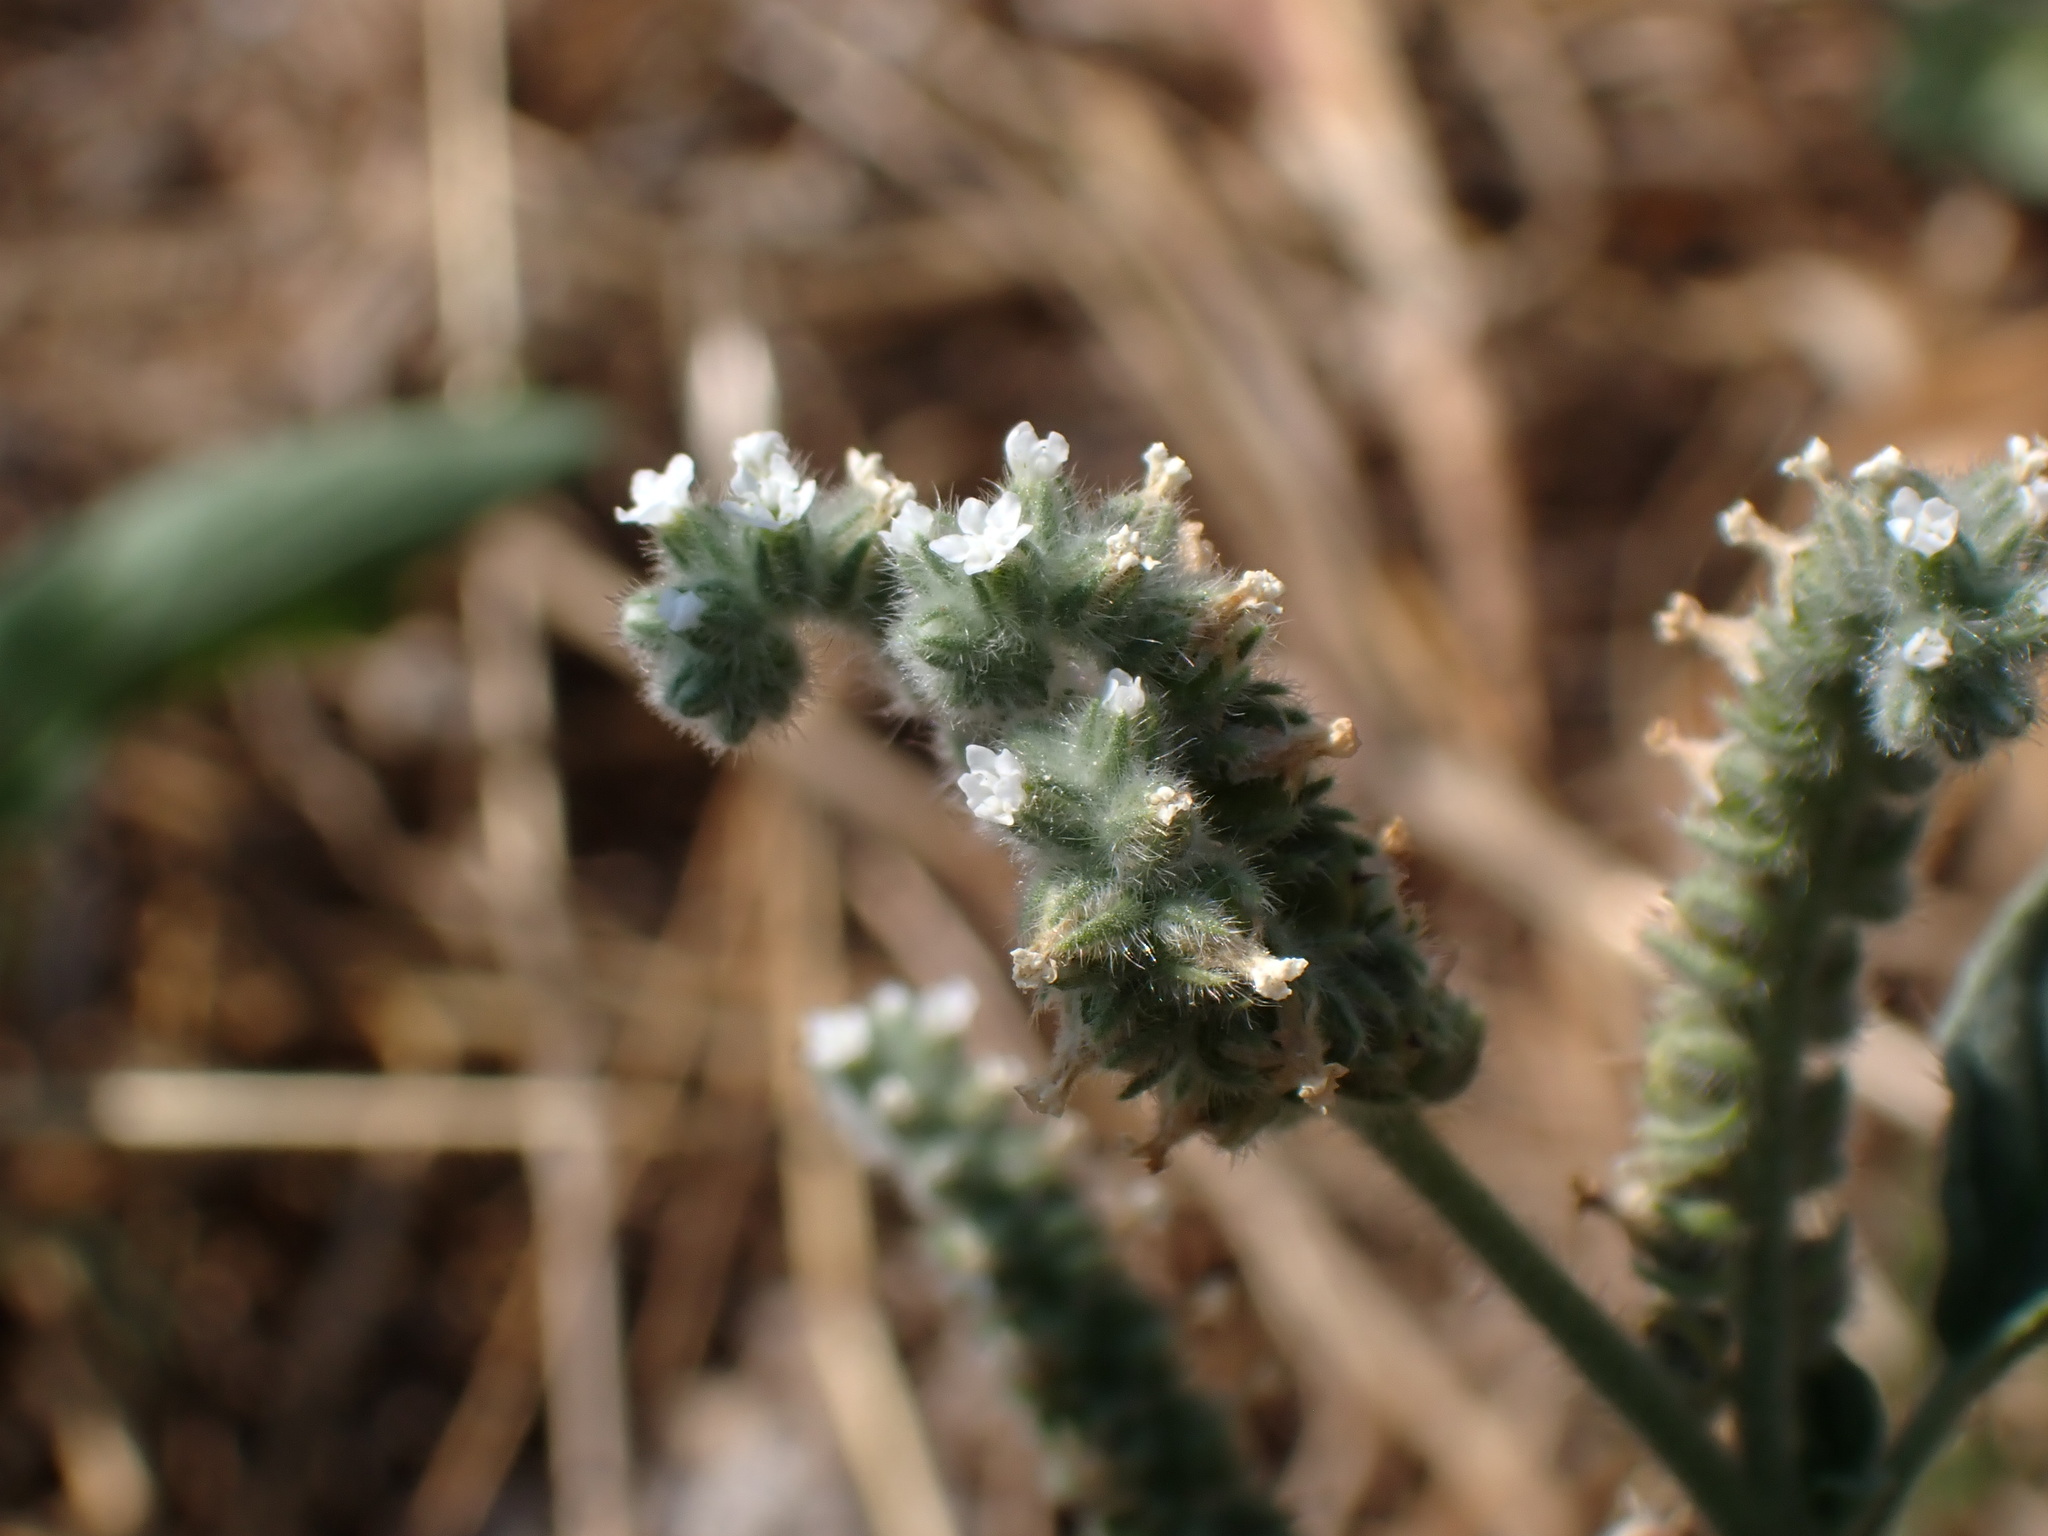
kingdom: Plantae
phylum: Tracheophyta
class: Magnoliopsida
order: Boraginales
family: Heliotropiaceae
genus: Heliotropium
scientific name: Heliotropium europaeum
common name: European heliotrope
